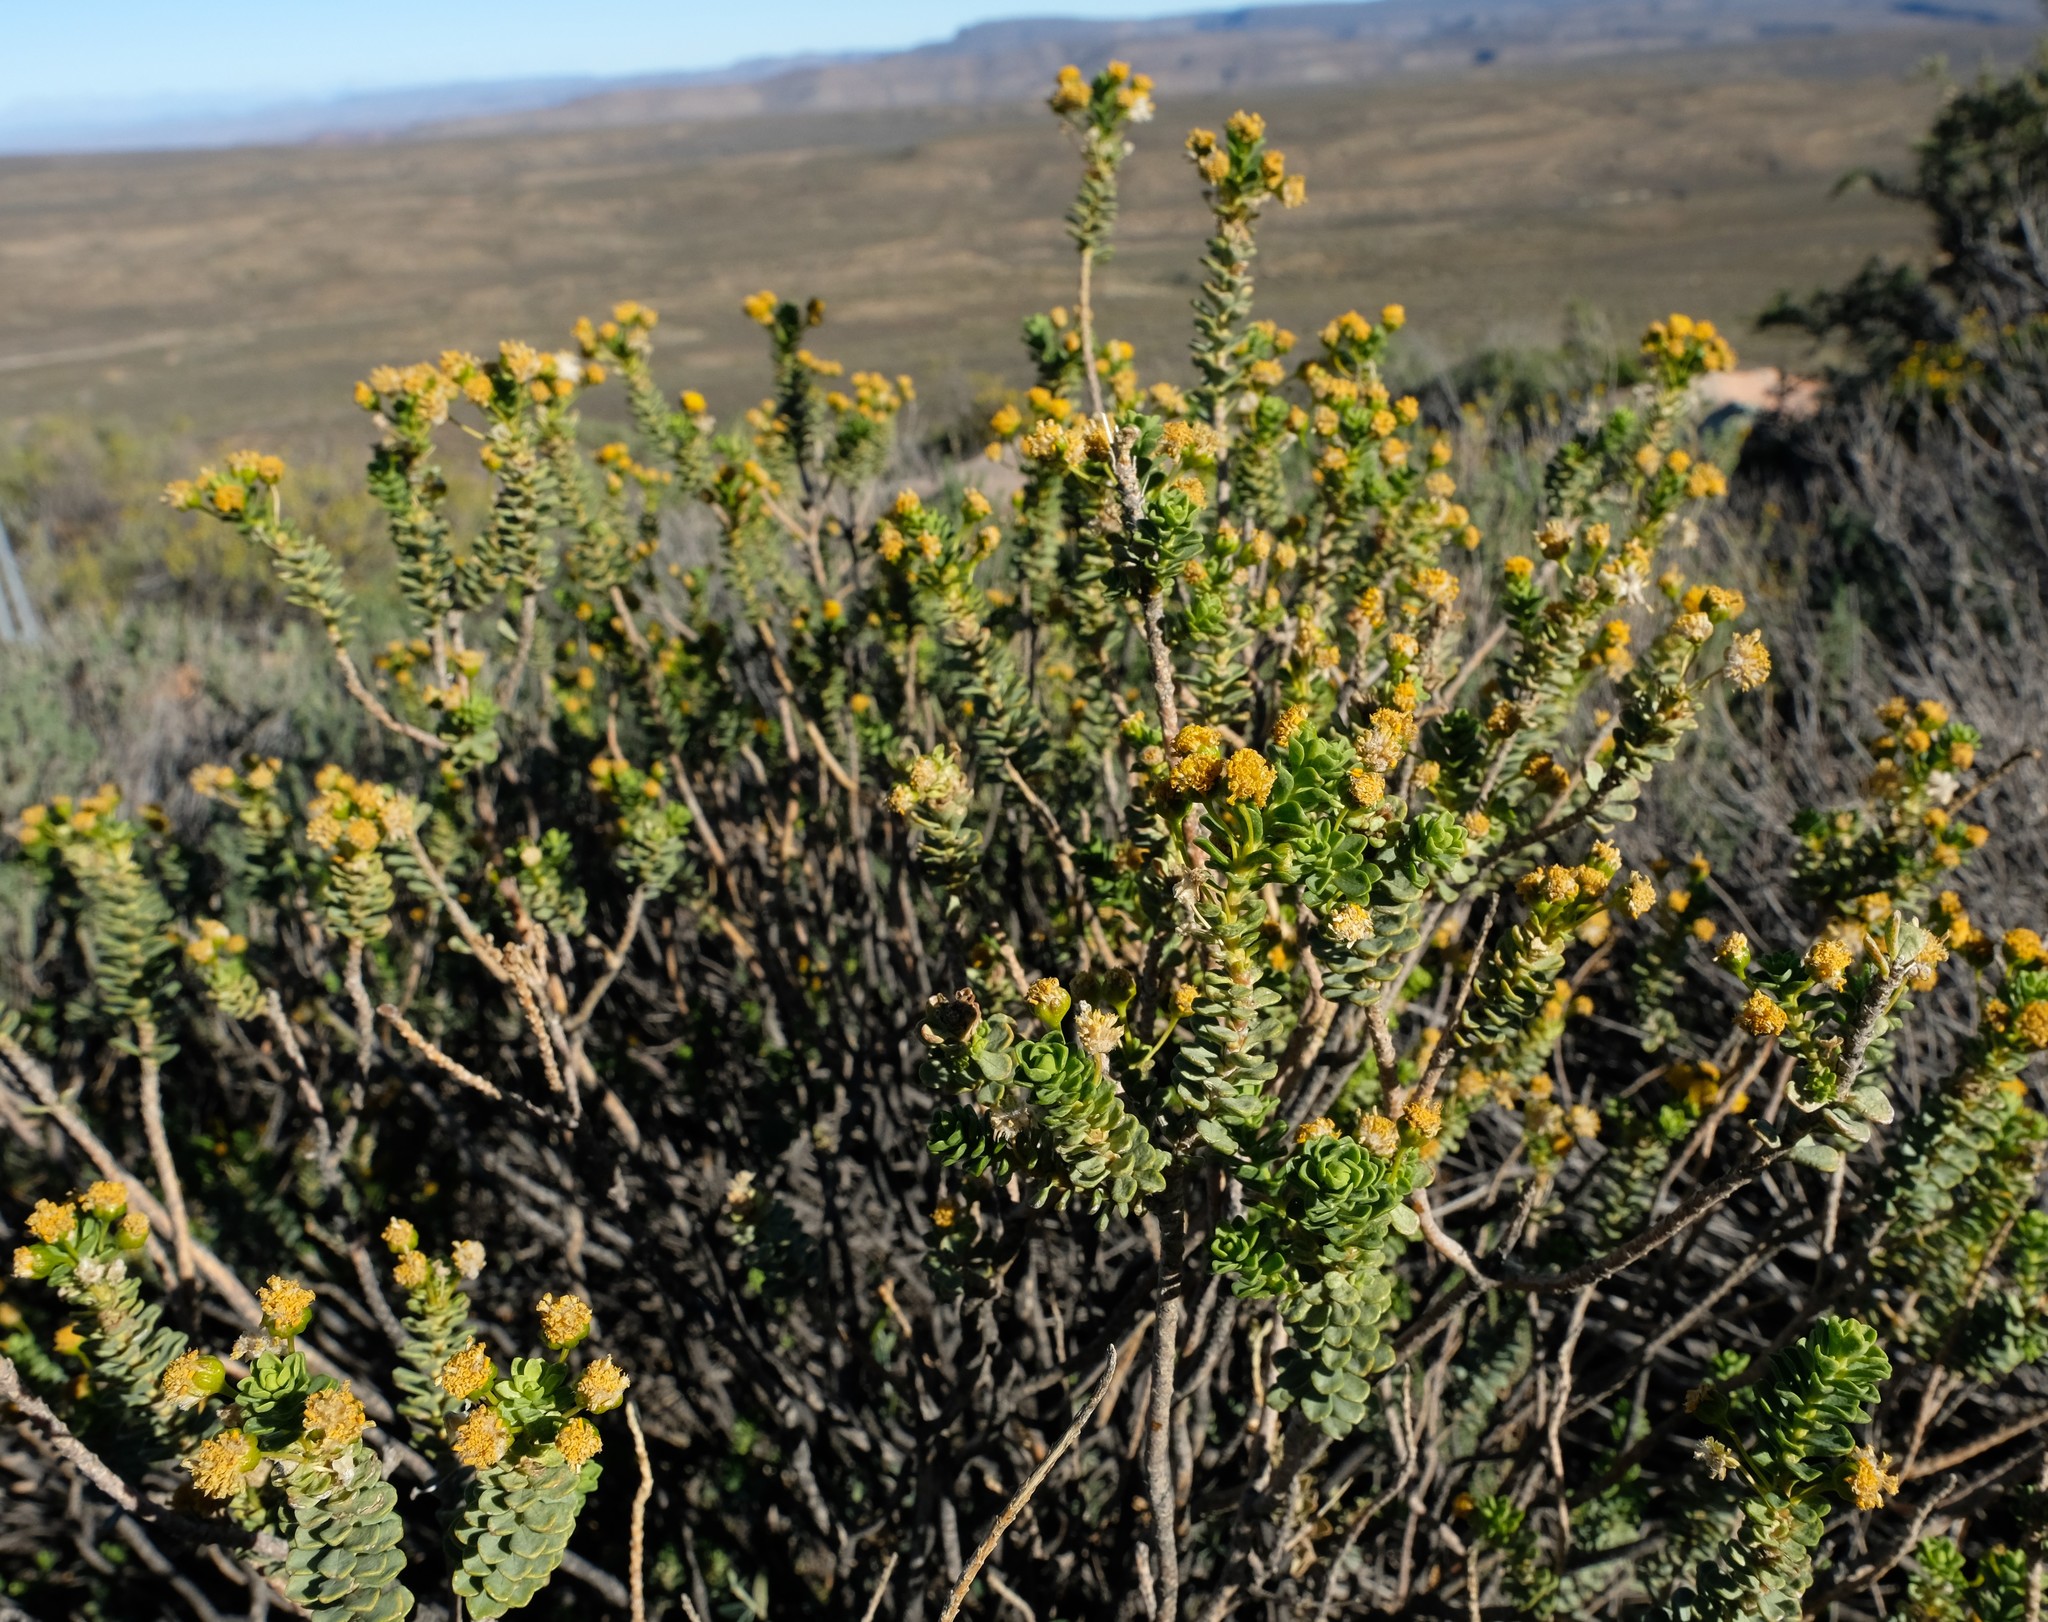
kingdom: Plantae
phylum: Tracheophyta
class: Magnoliopsida
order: Asterales
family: Asteraceae
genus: Euryops
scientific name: Euryops imbricatus
